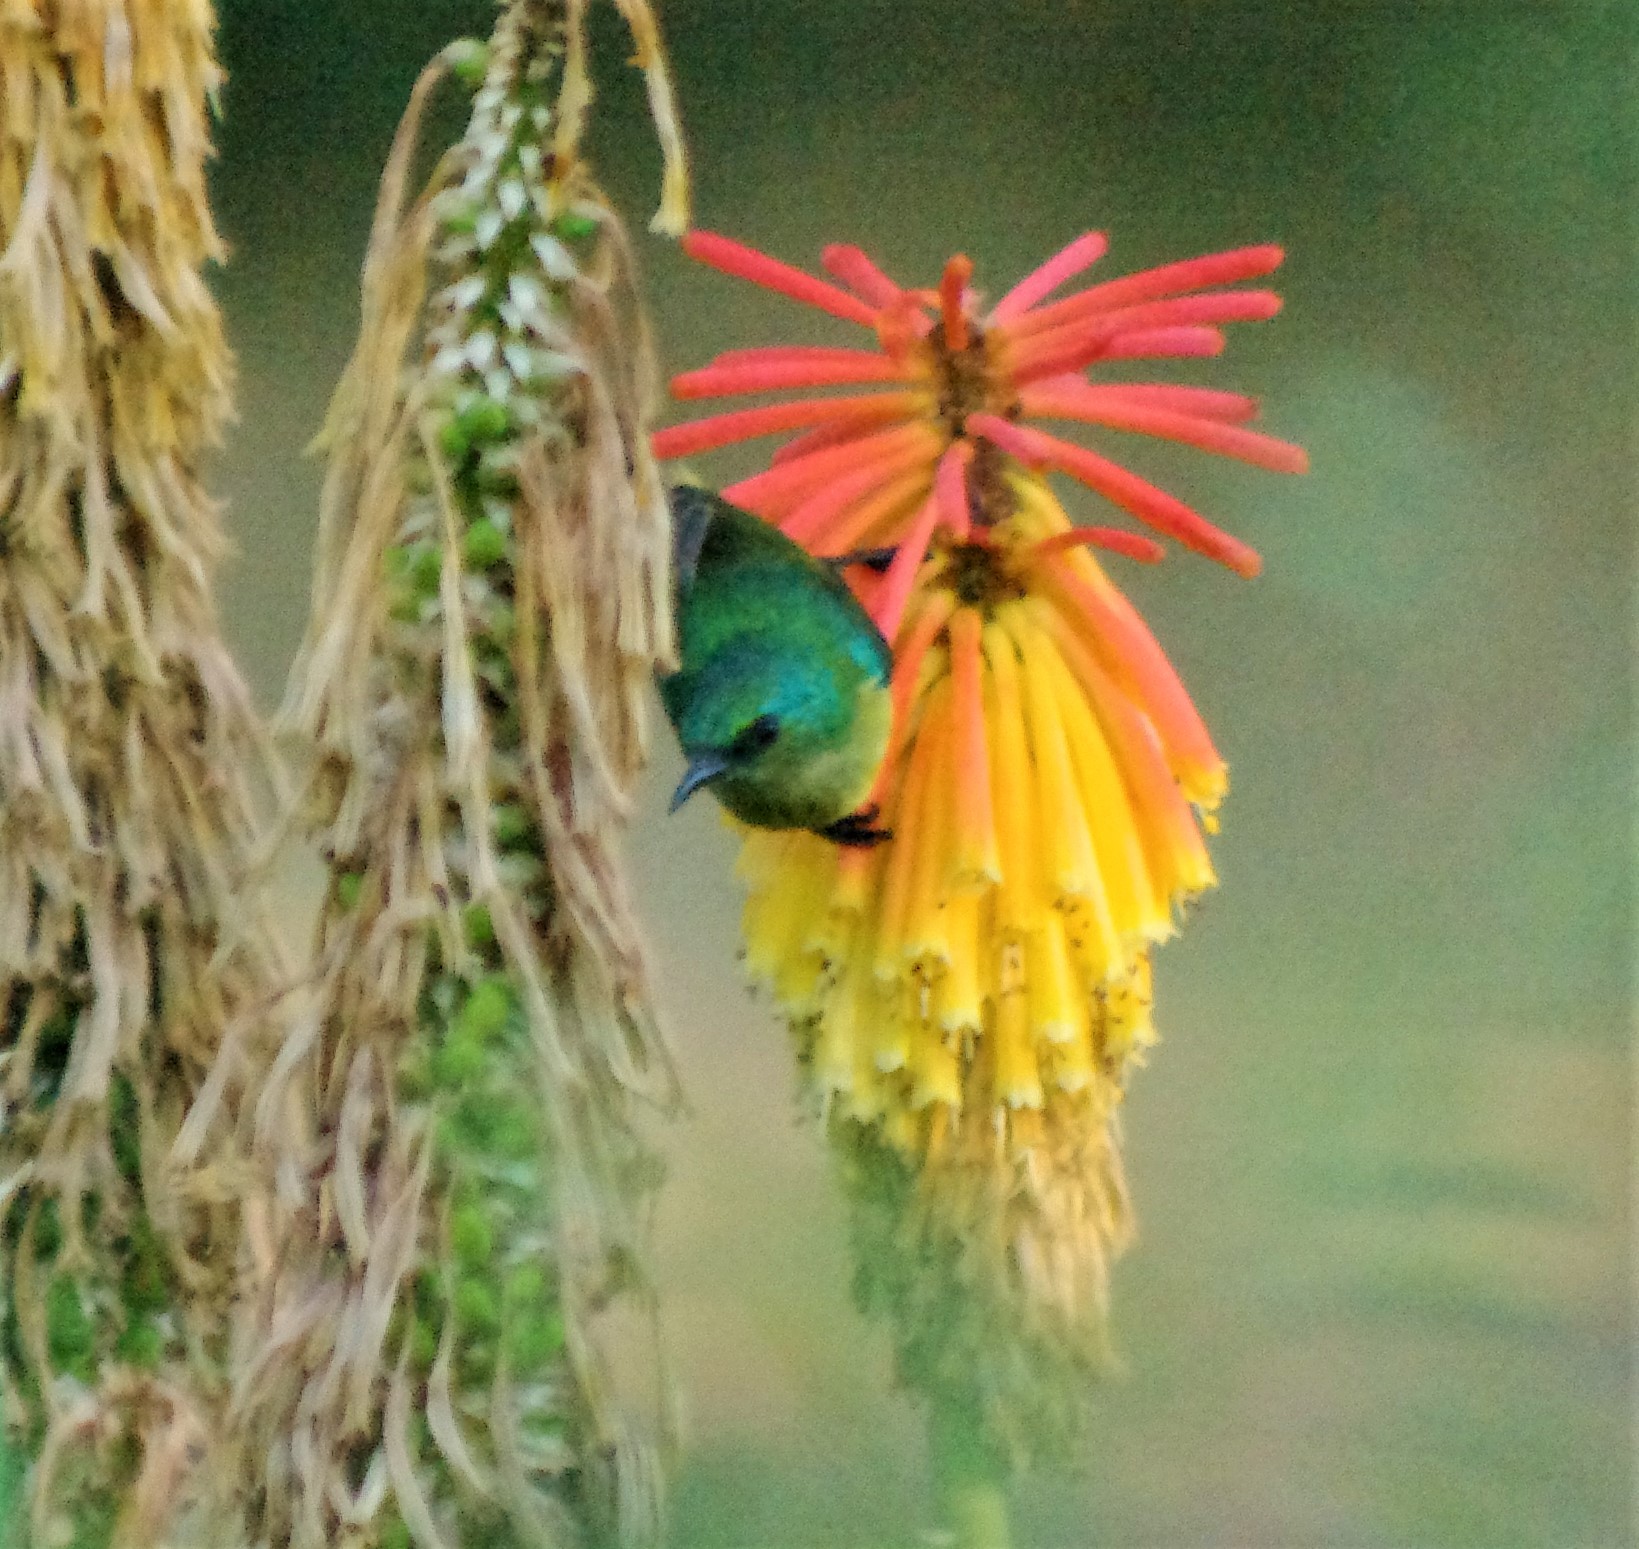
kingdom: Animalia
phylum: Chordata
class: Aves
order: Passeriformes
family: Nectariniidae
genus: Hedydipna
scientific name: Hedydipna collaris
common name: Collared sunbird
